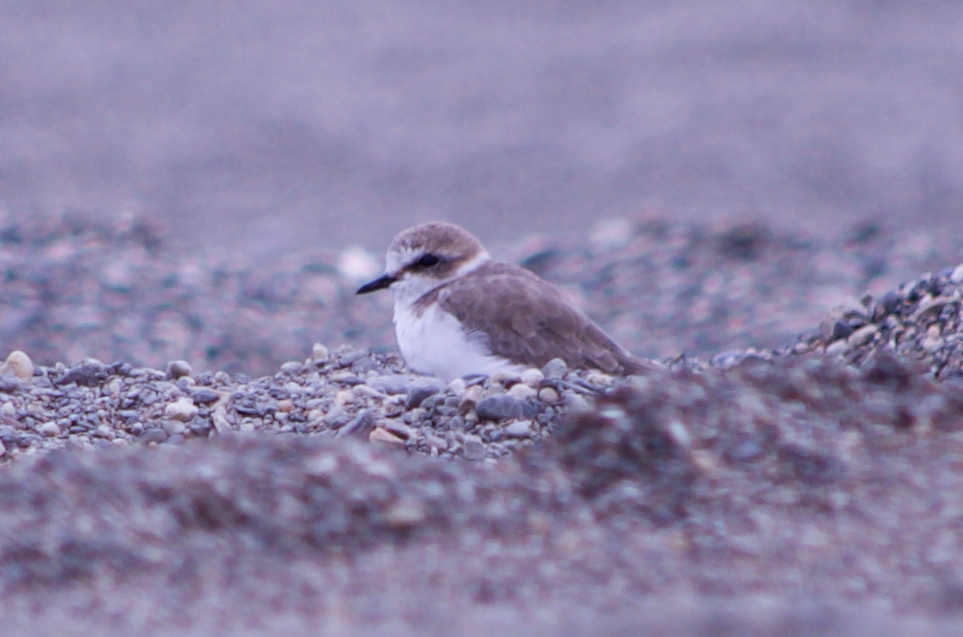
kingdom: Animalia
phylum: Chordata
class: Aves
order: Charadriiformes
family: Charadriidae
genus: Charadrius
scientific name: Charadrius alexandrinus
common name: Kentish plover
